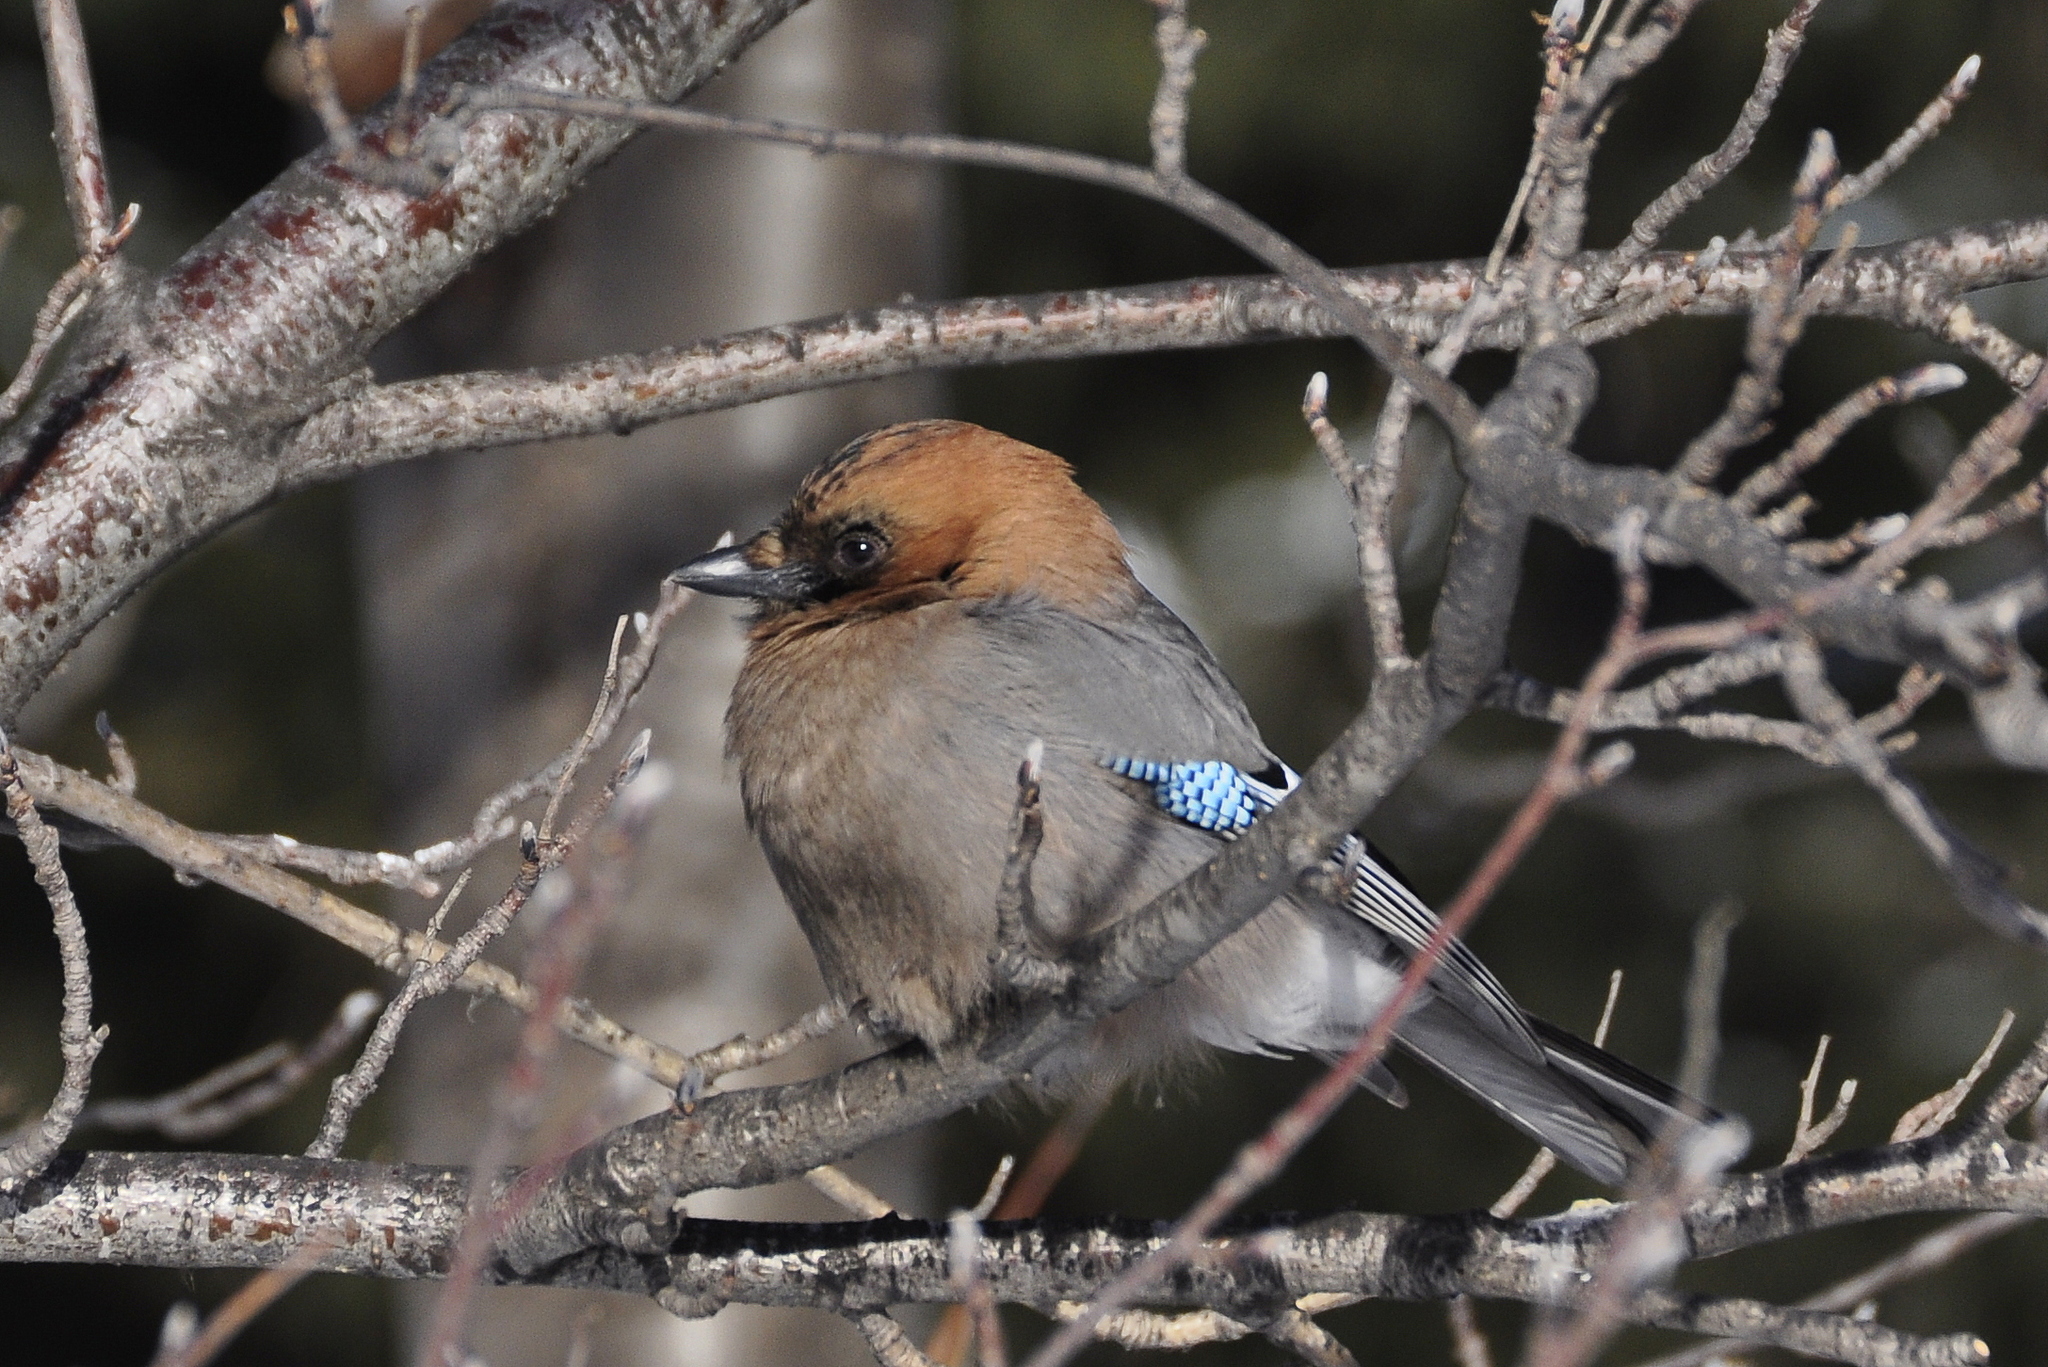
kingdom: Animalia
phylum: Chordata
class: Aves
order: Passeriformes
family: Corvidae
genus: Garrulus
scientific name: Garrulus glandarius
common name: Eurasian jay
